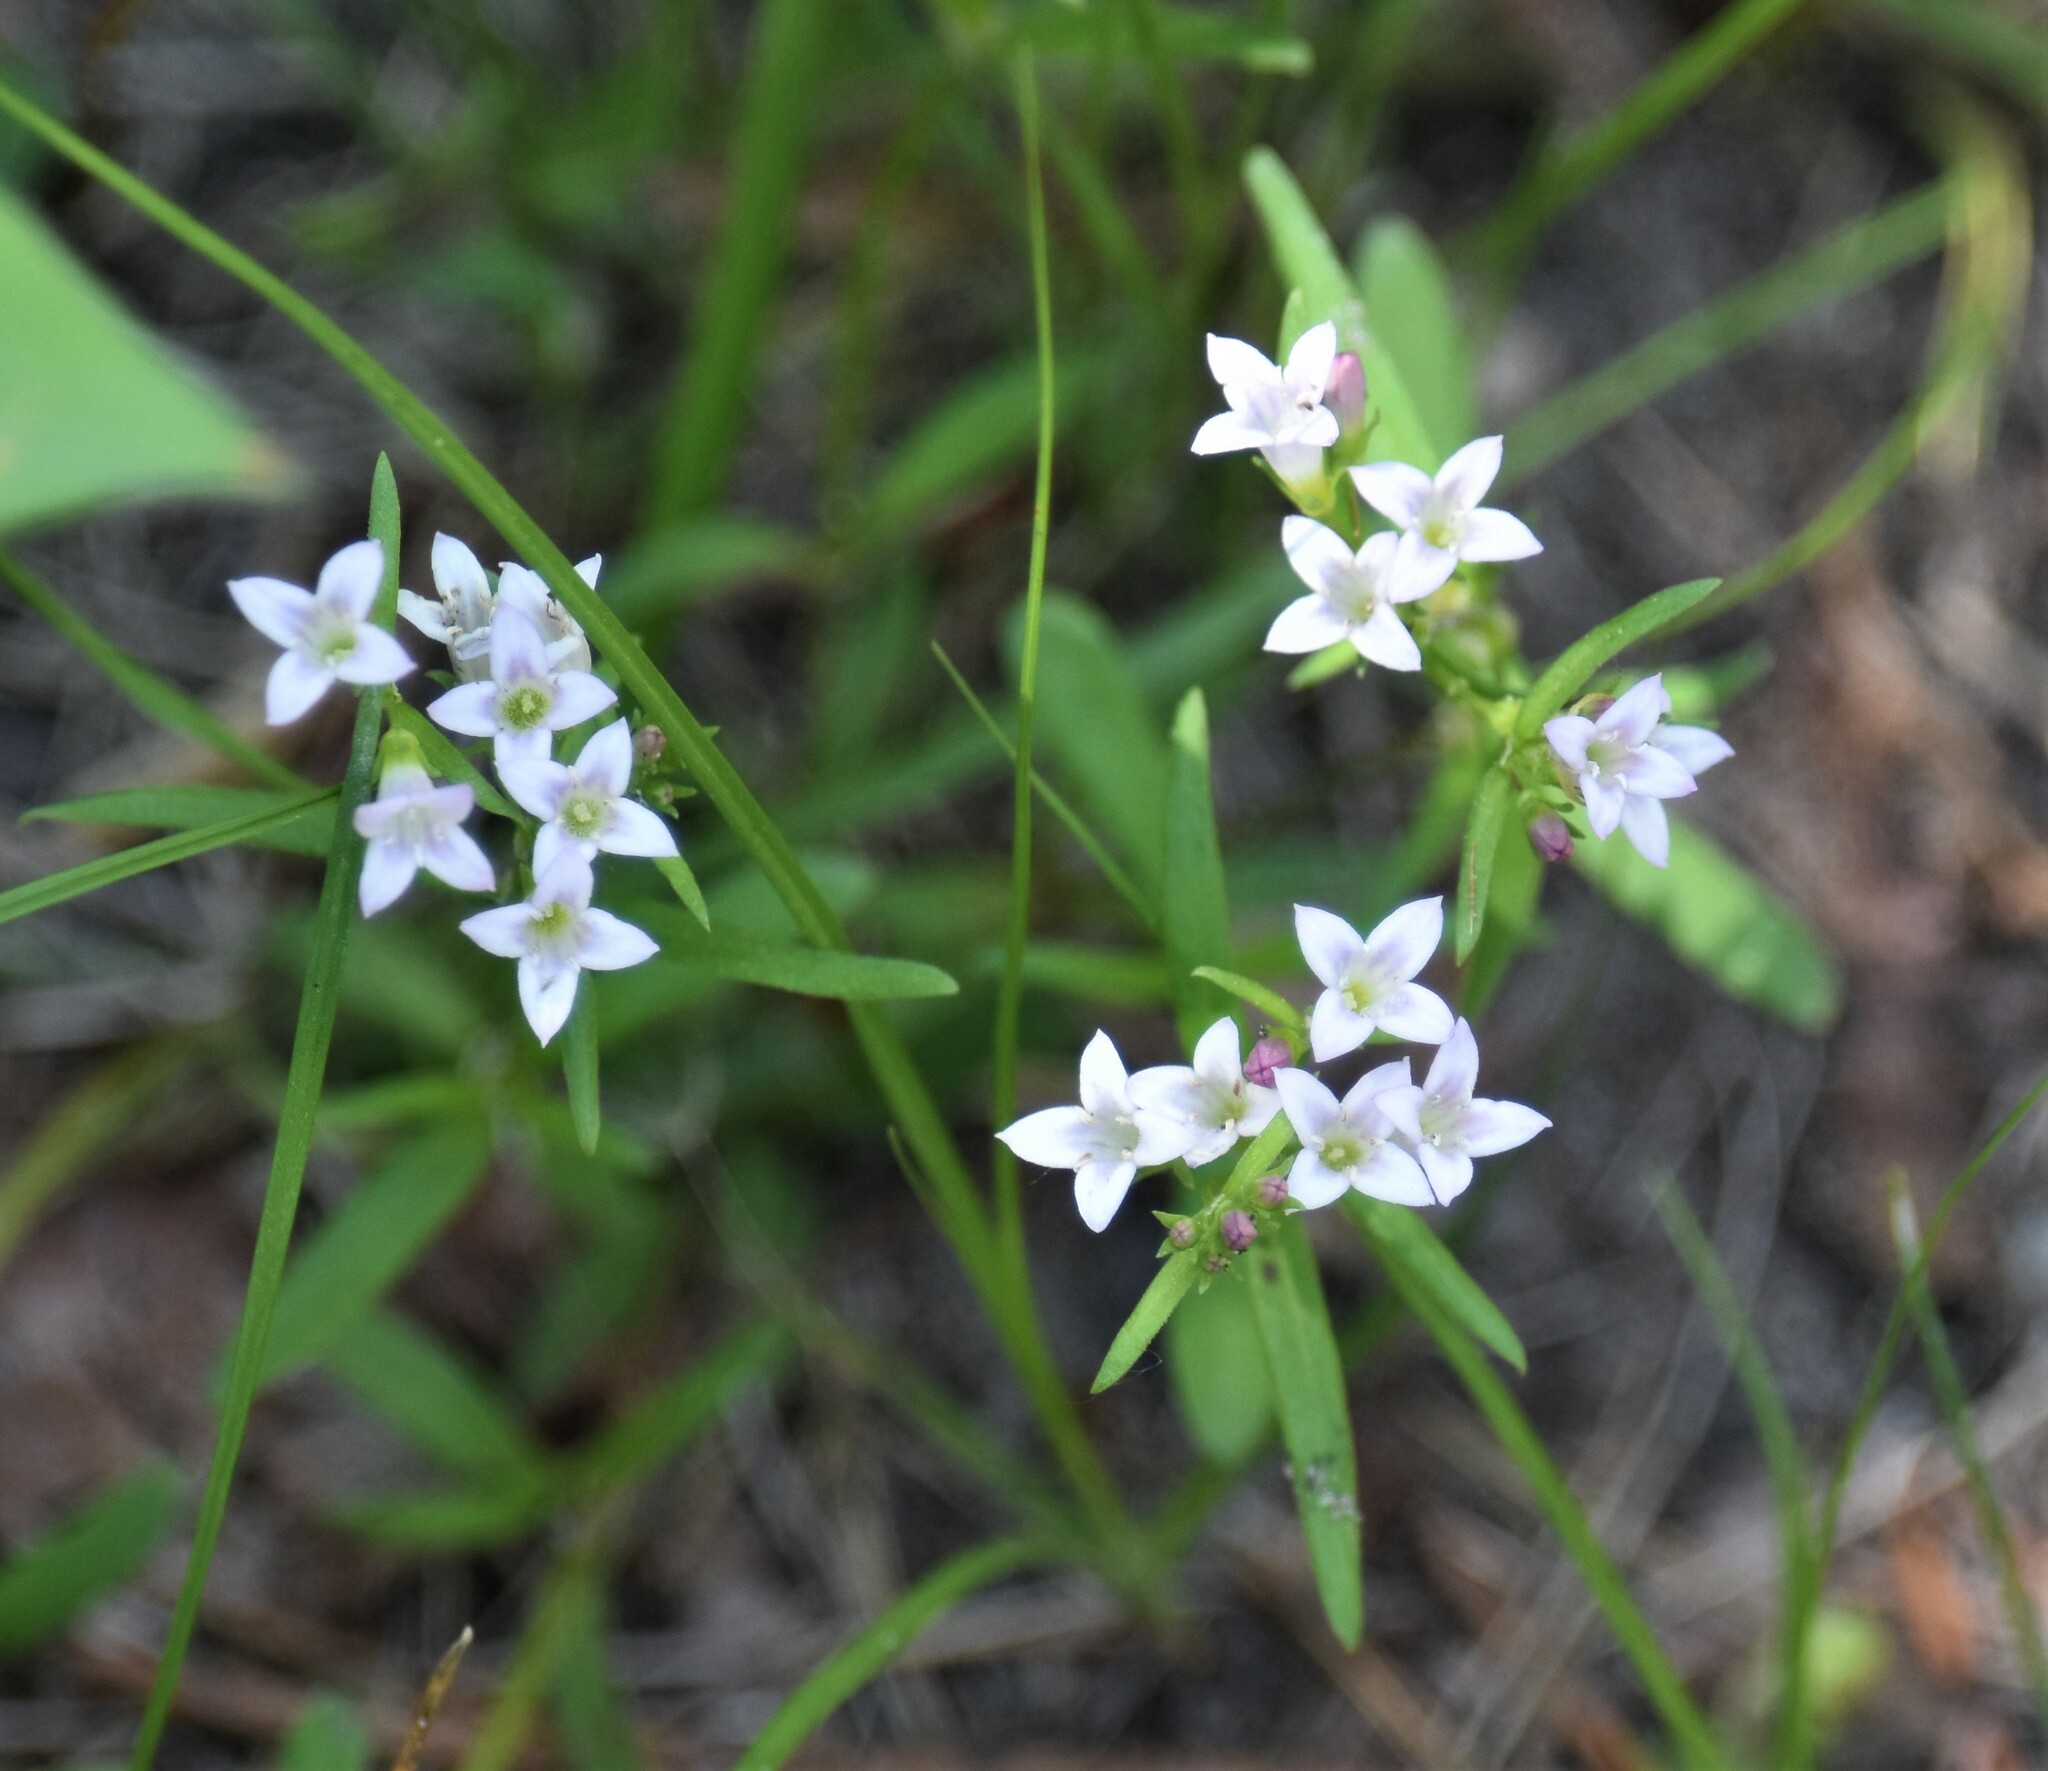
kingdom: Plantae
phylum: Tracheophyta
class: Magnoliopsida
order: Gentianales
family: Rubiaceae
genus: Houstonia
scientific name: Houstonia longifolia
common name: Long-leaved bluets
